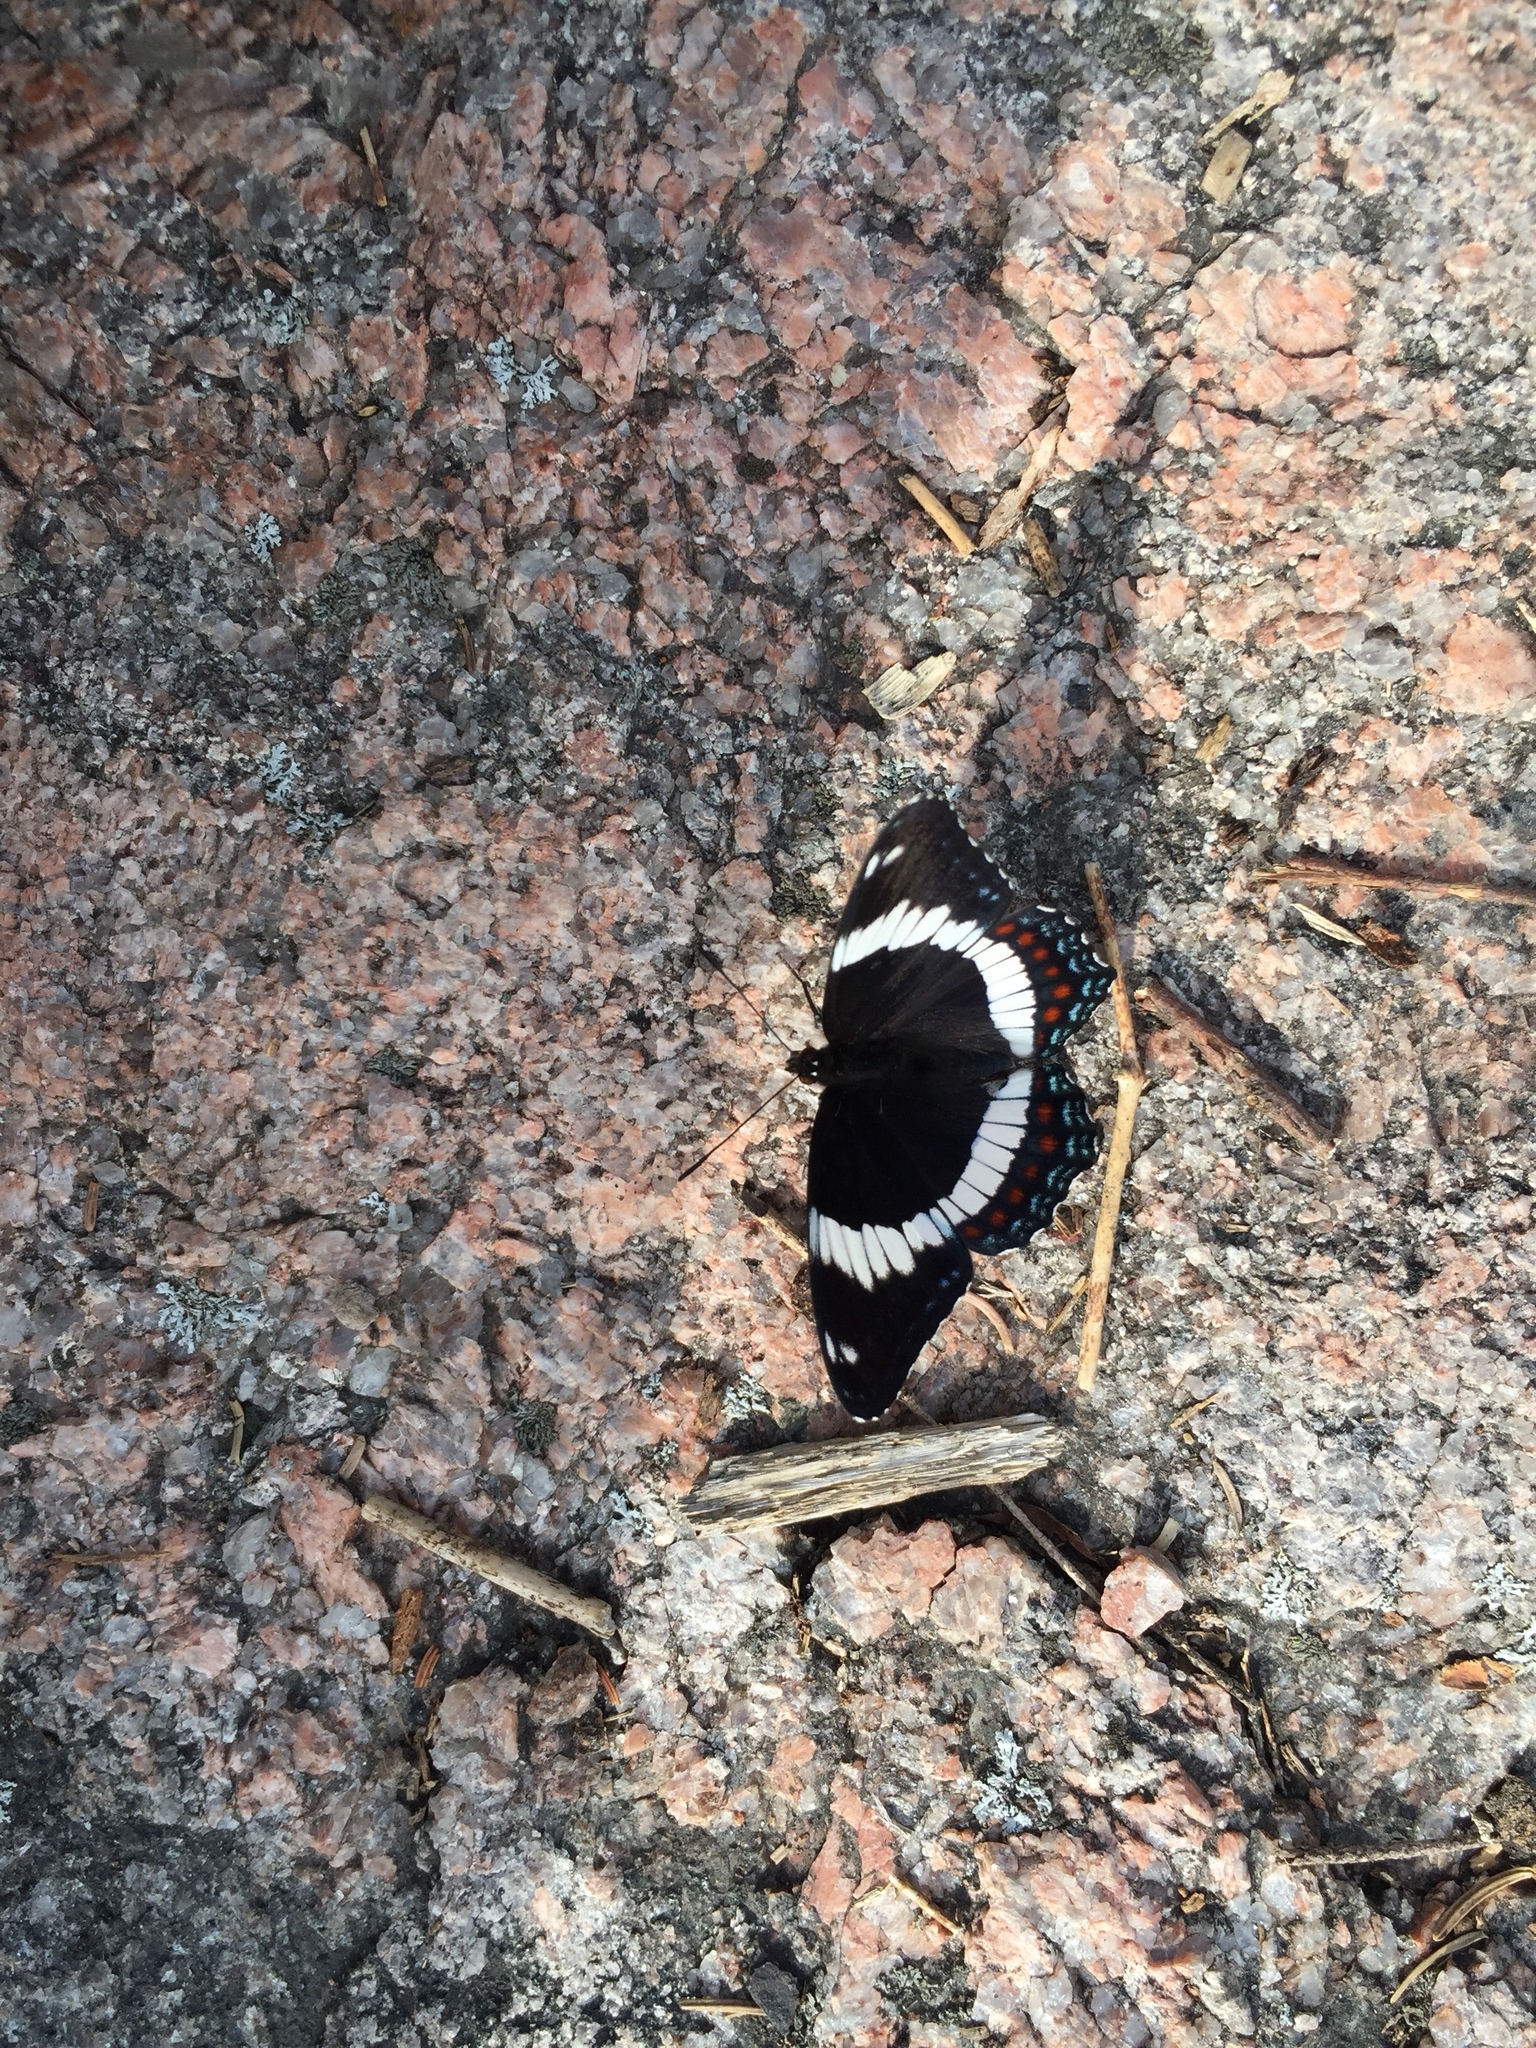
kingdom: Animalia
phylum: Arthropoda
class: Insecta
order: Lepidoptera
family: Nymphalidae
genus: Limenitis
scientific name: Limenitis arthemis
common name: Red-spotted admiral
